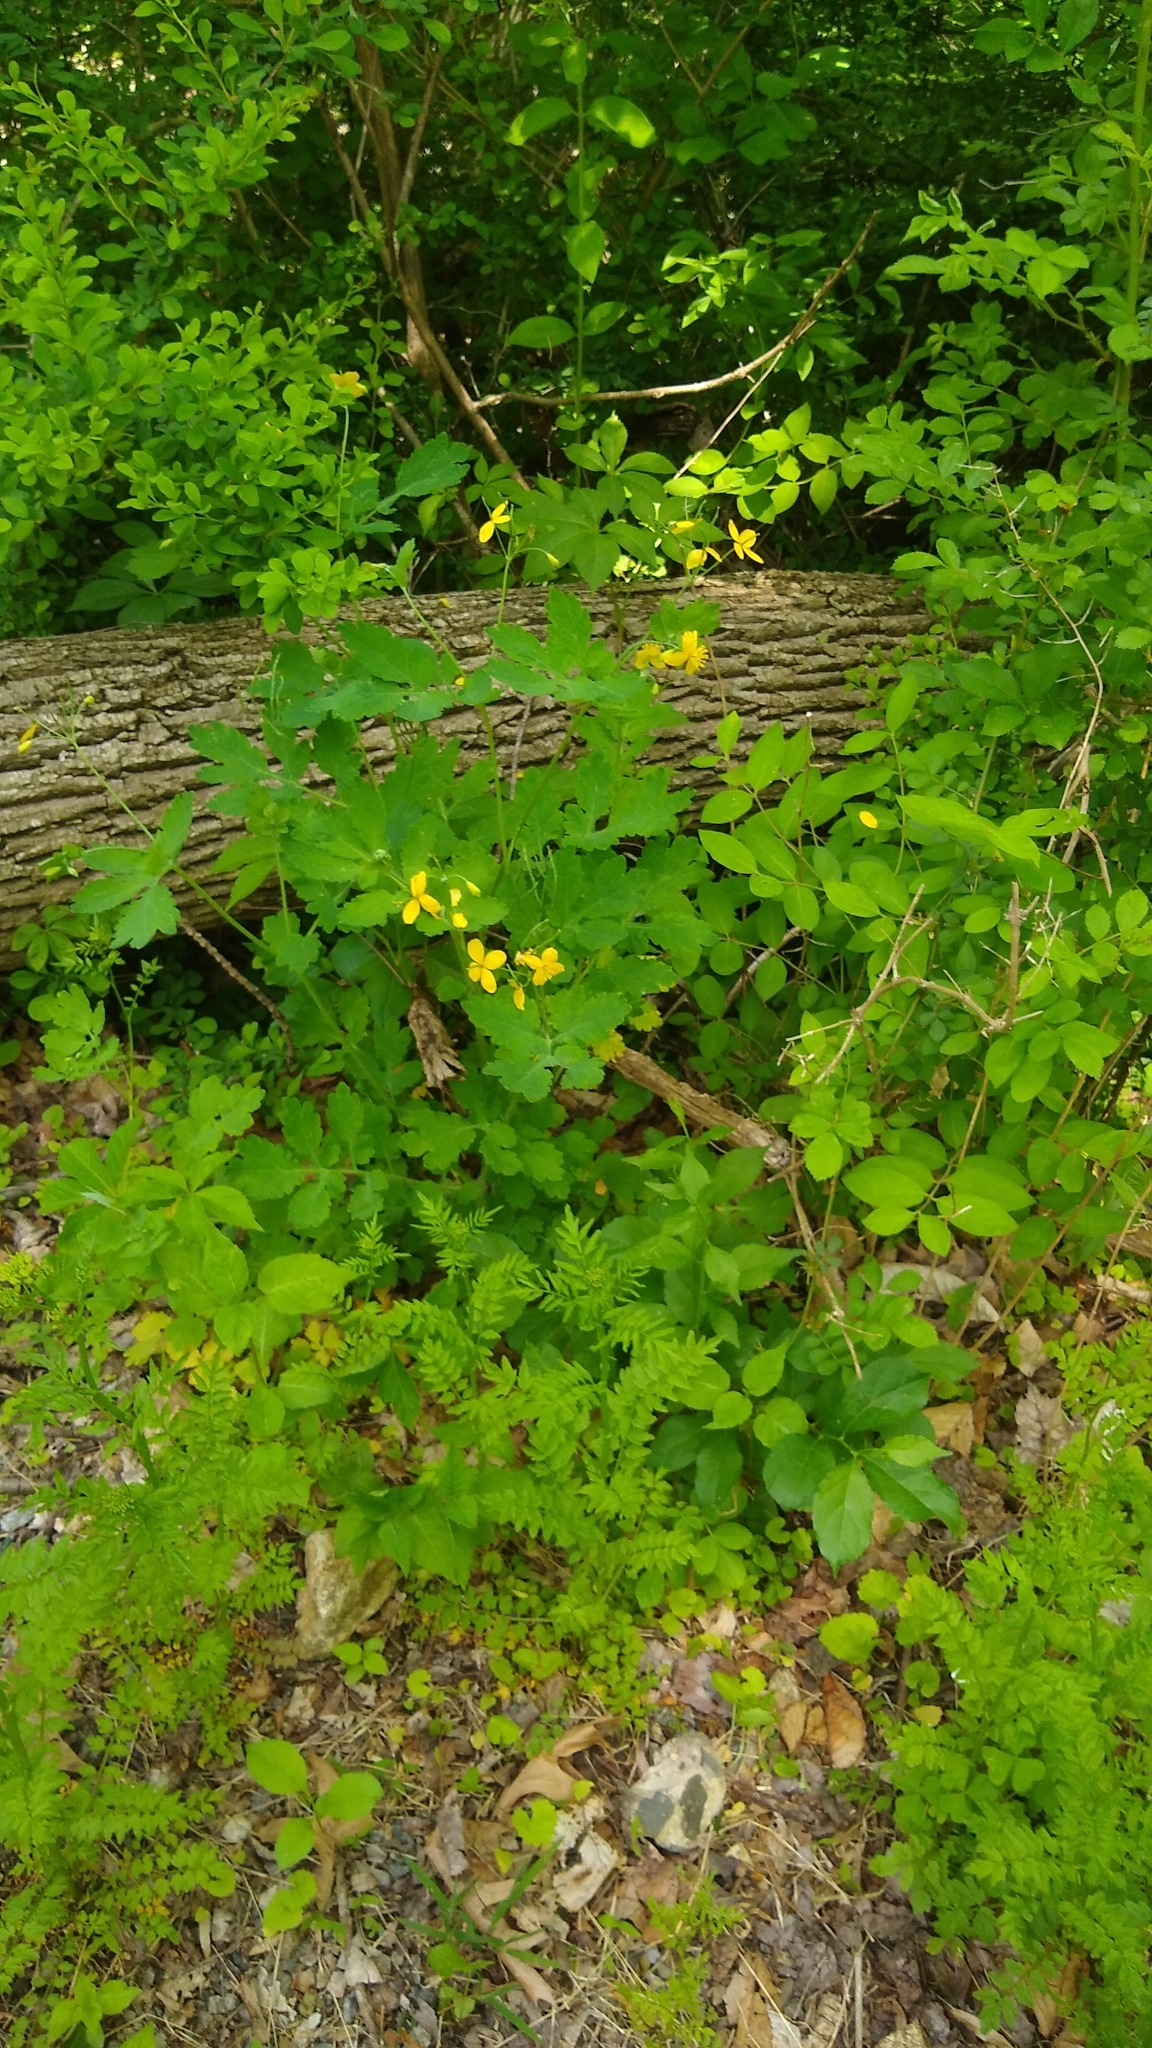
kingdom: Plantae
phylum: Tracheophyta
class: Magnoliopsida
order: Ranunculales
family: Papaveraceae
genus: Chelidonium
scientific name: Chelidonium majus
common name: Greater celandine
